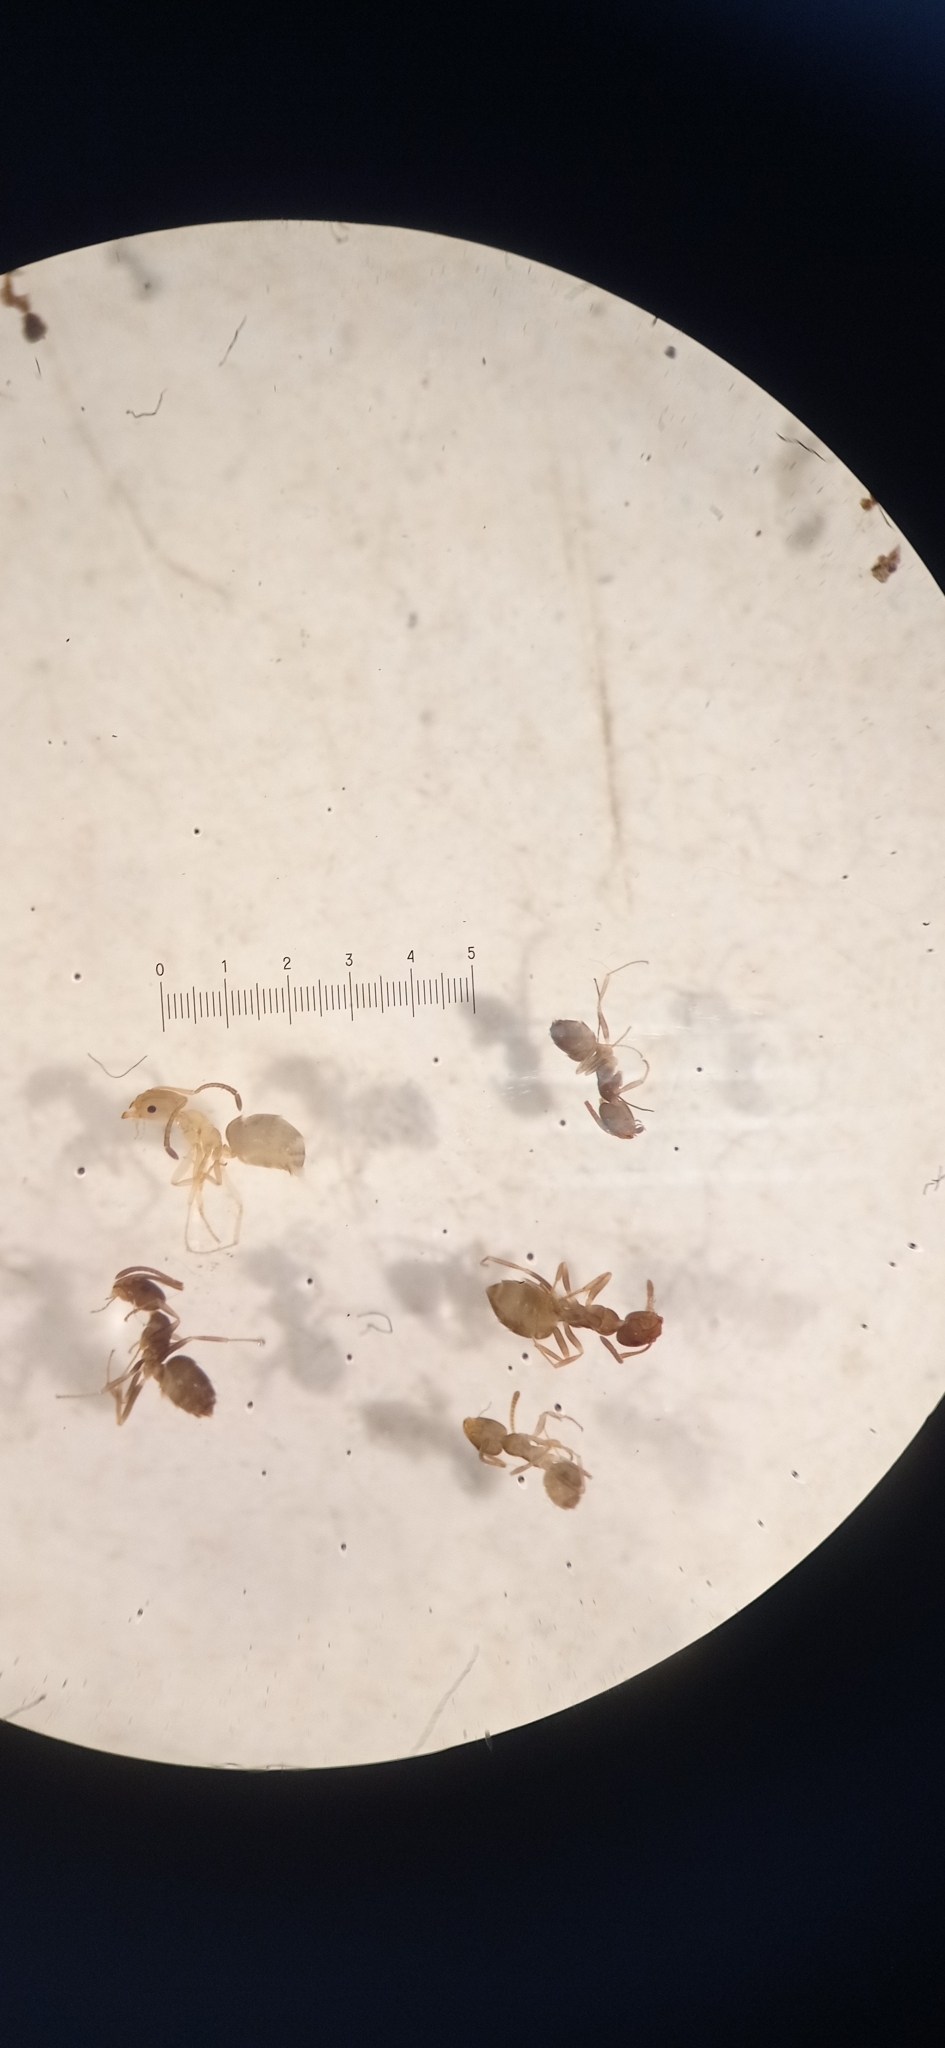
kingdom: Animalia
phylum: Arthropoda
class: Insecta
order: Hymenoptera
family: Formicidae
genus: Plagiolepis
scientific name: Plagiolepis schmitzii
